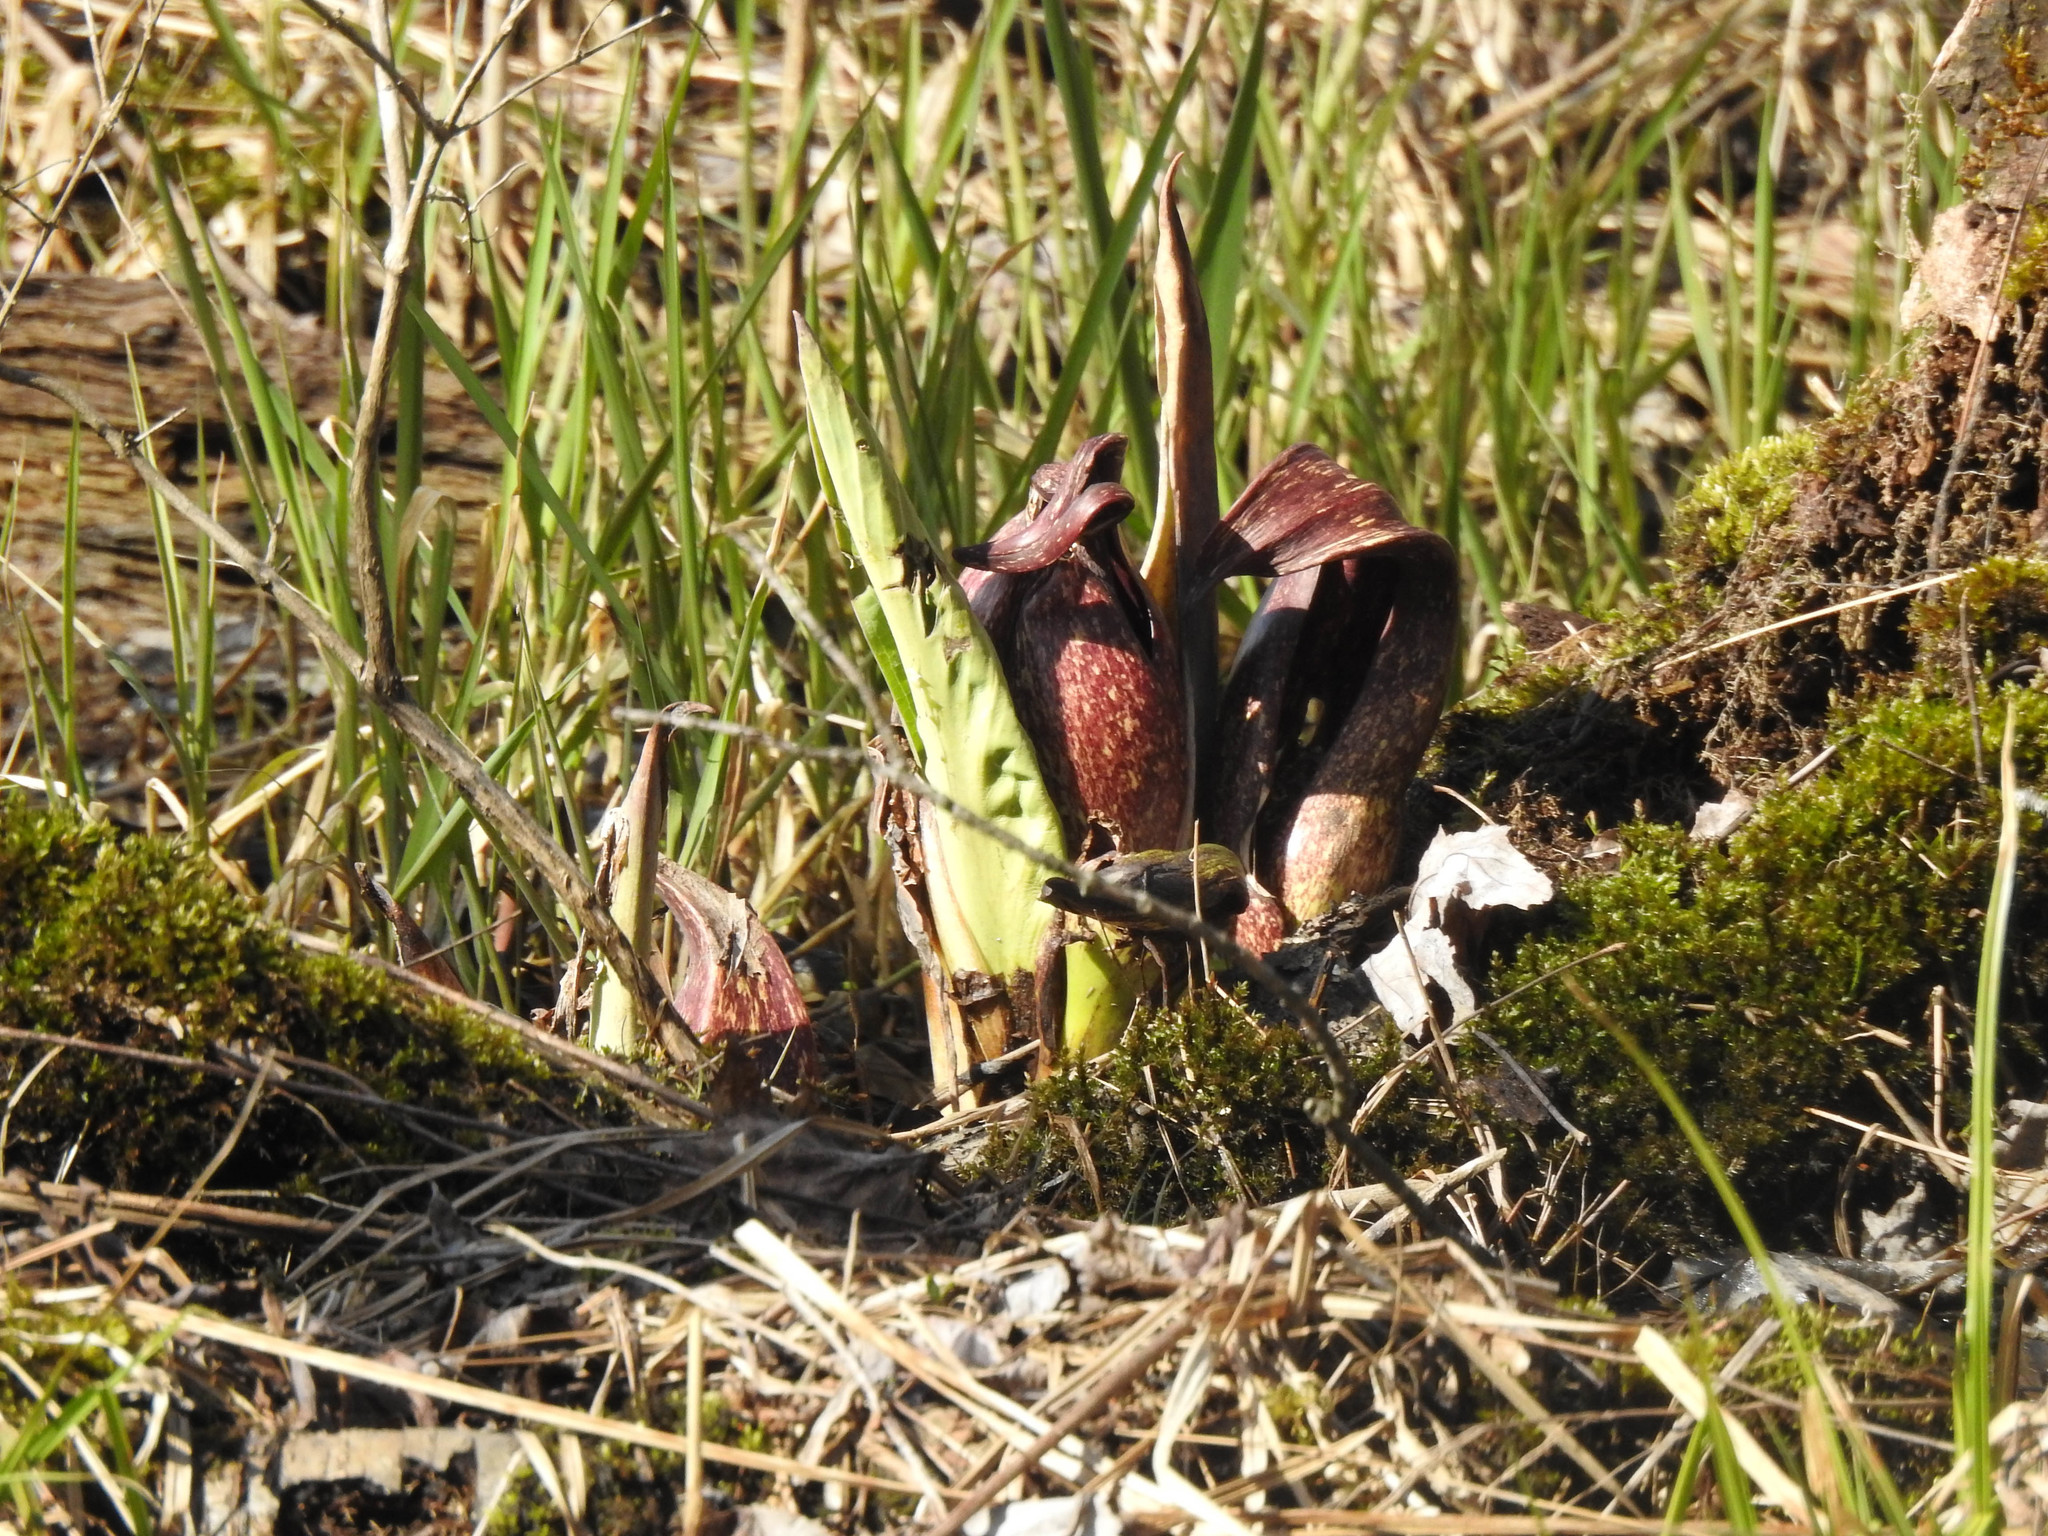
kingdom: Plantae
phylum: Tracheophyta
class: Liliopsida
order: Alismatales
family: Araceae
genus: Symplocarpus
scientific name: Symplocarpus foetidus
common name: Eastern skunk cabbage
